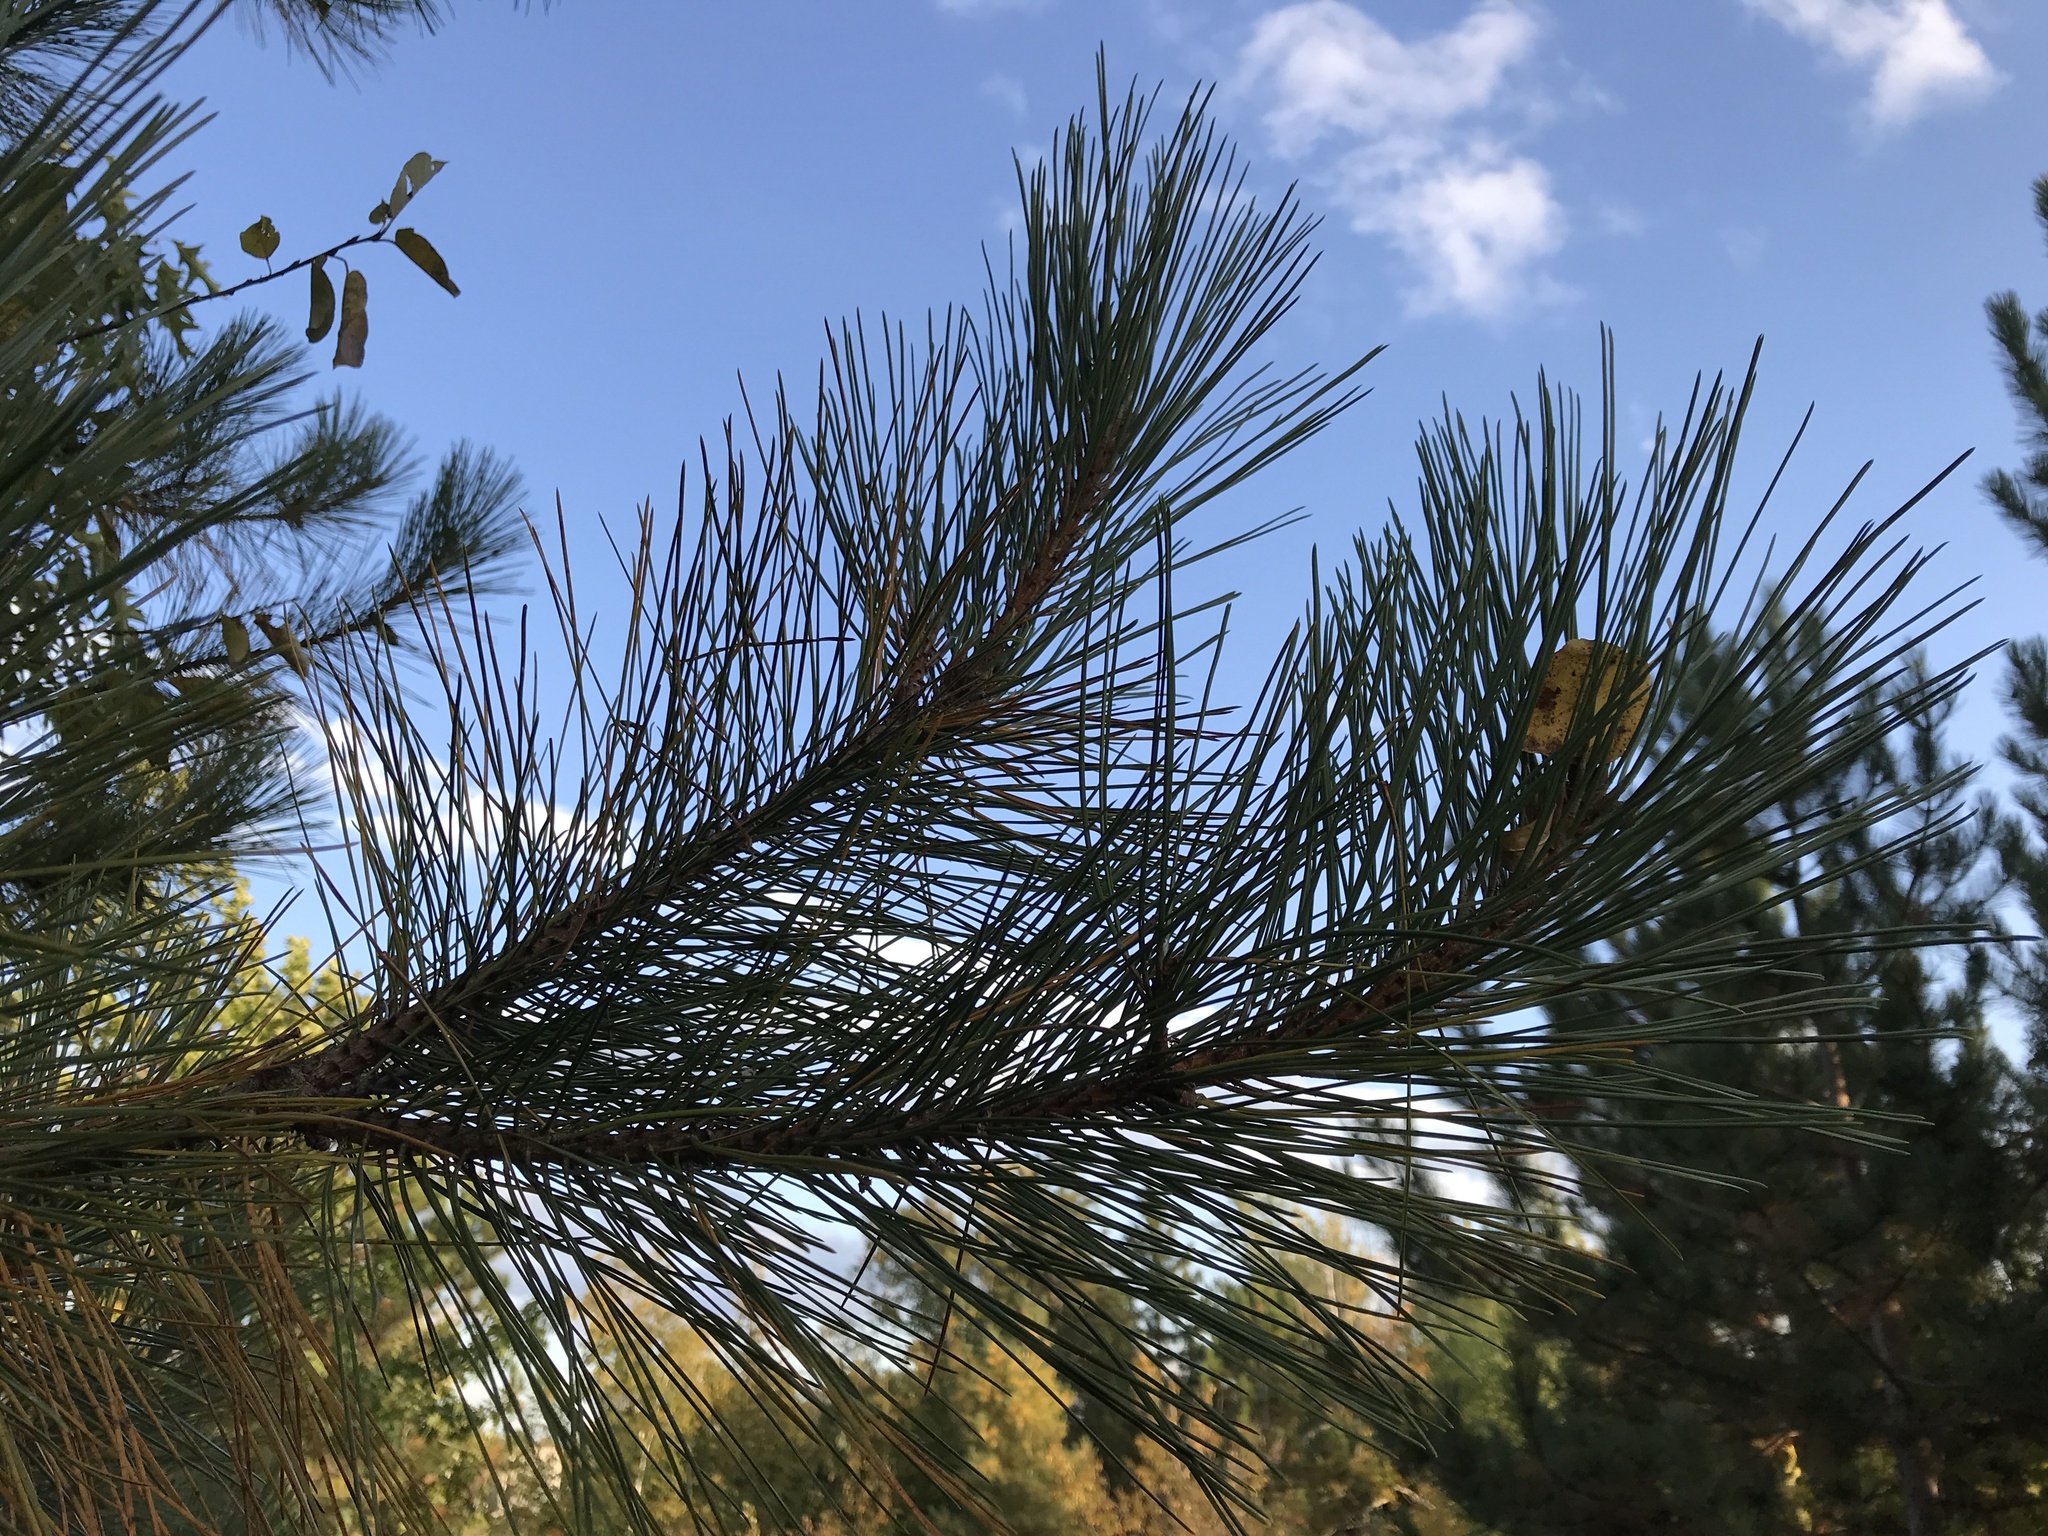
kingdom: Plantae
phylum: Tracheophyta
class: Pinopsida
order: Pinales
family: Pinaceae
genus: Pinus
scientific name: Pinus resinosa
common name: Norway pine
